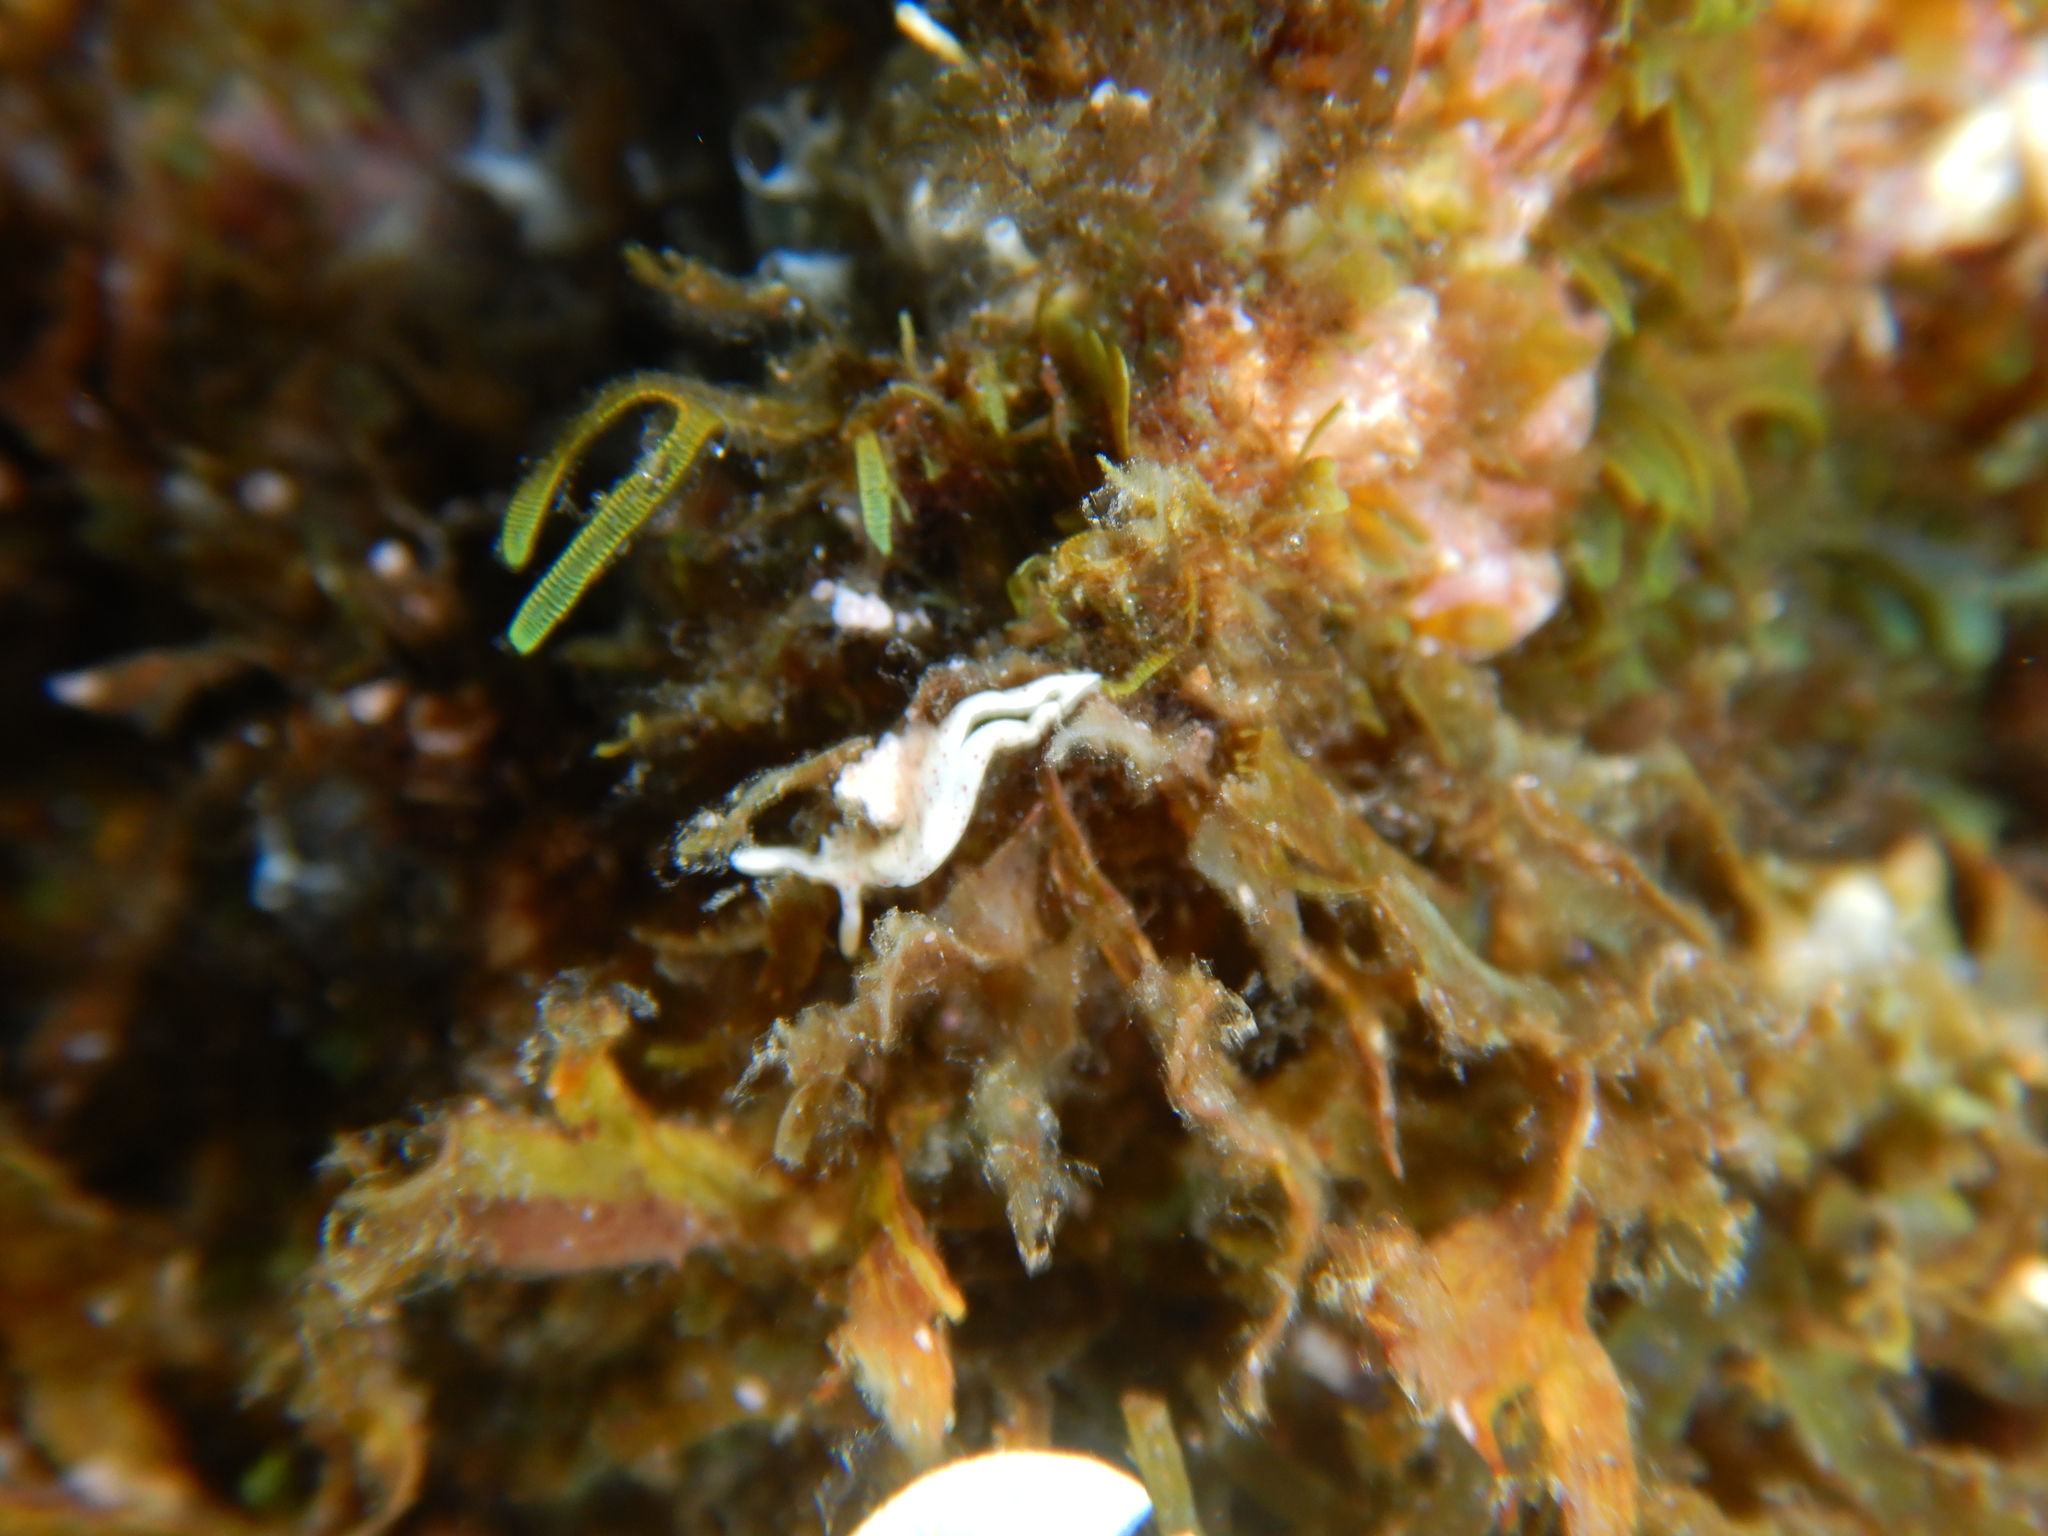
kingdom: Animalia
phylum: Mollusca
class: Gastropoda
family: Plakobranchidae
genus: Elysia
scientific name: Elysia timida
